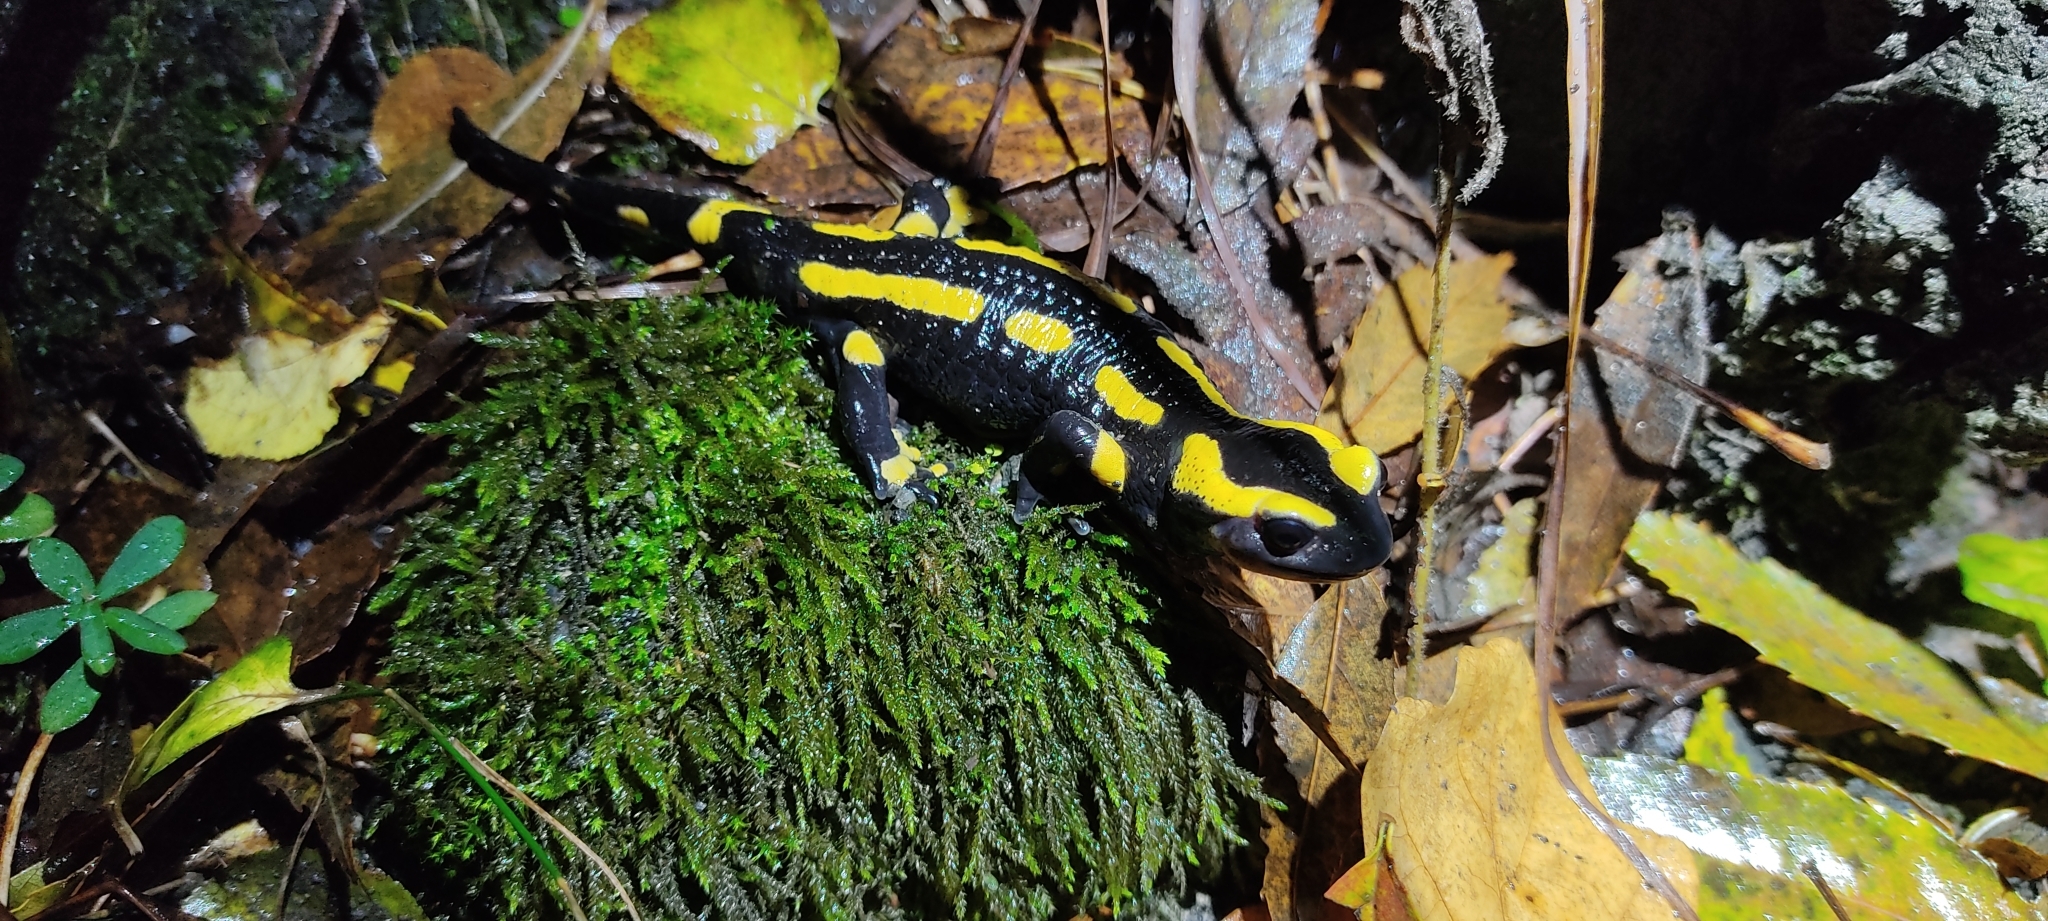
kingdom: Animalia
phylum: Chordata
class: Amphibia
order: Caudata
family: Salamandridae
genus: Salamandra
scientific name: Salamandra salamandra
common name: Fire salamander
